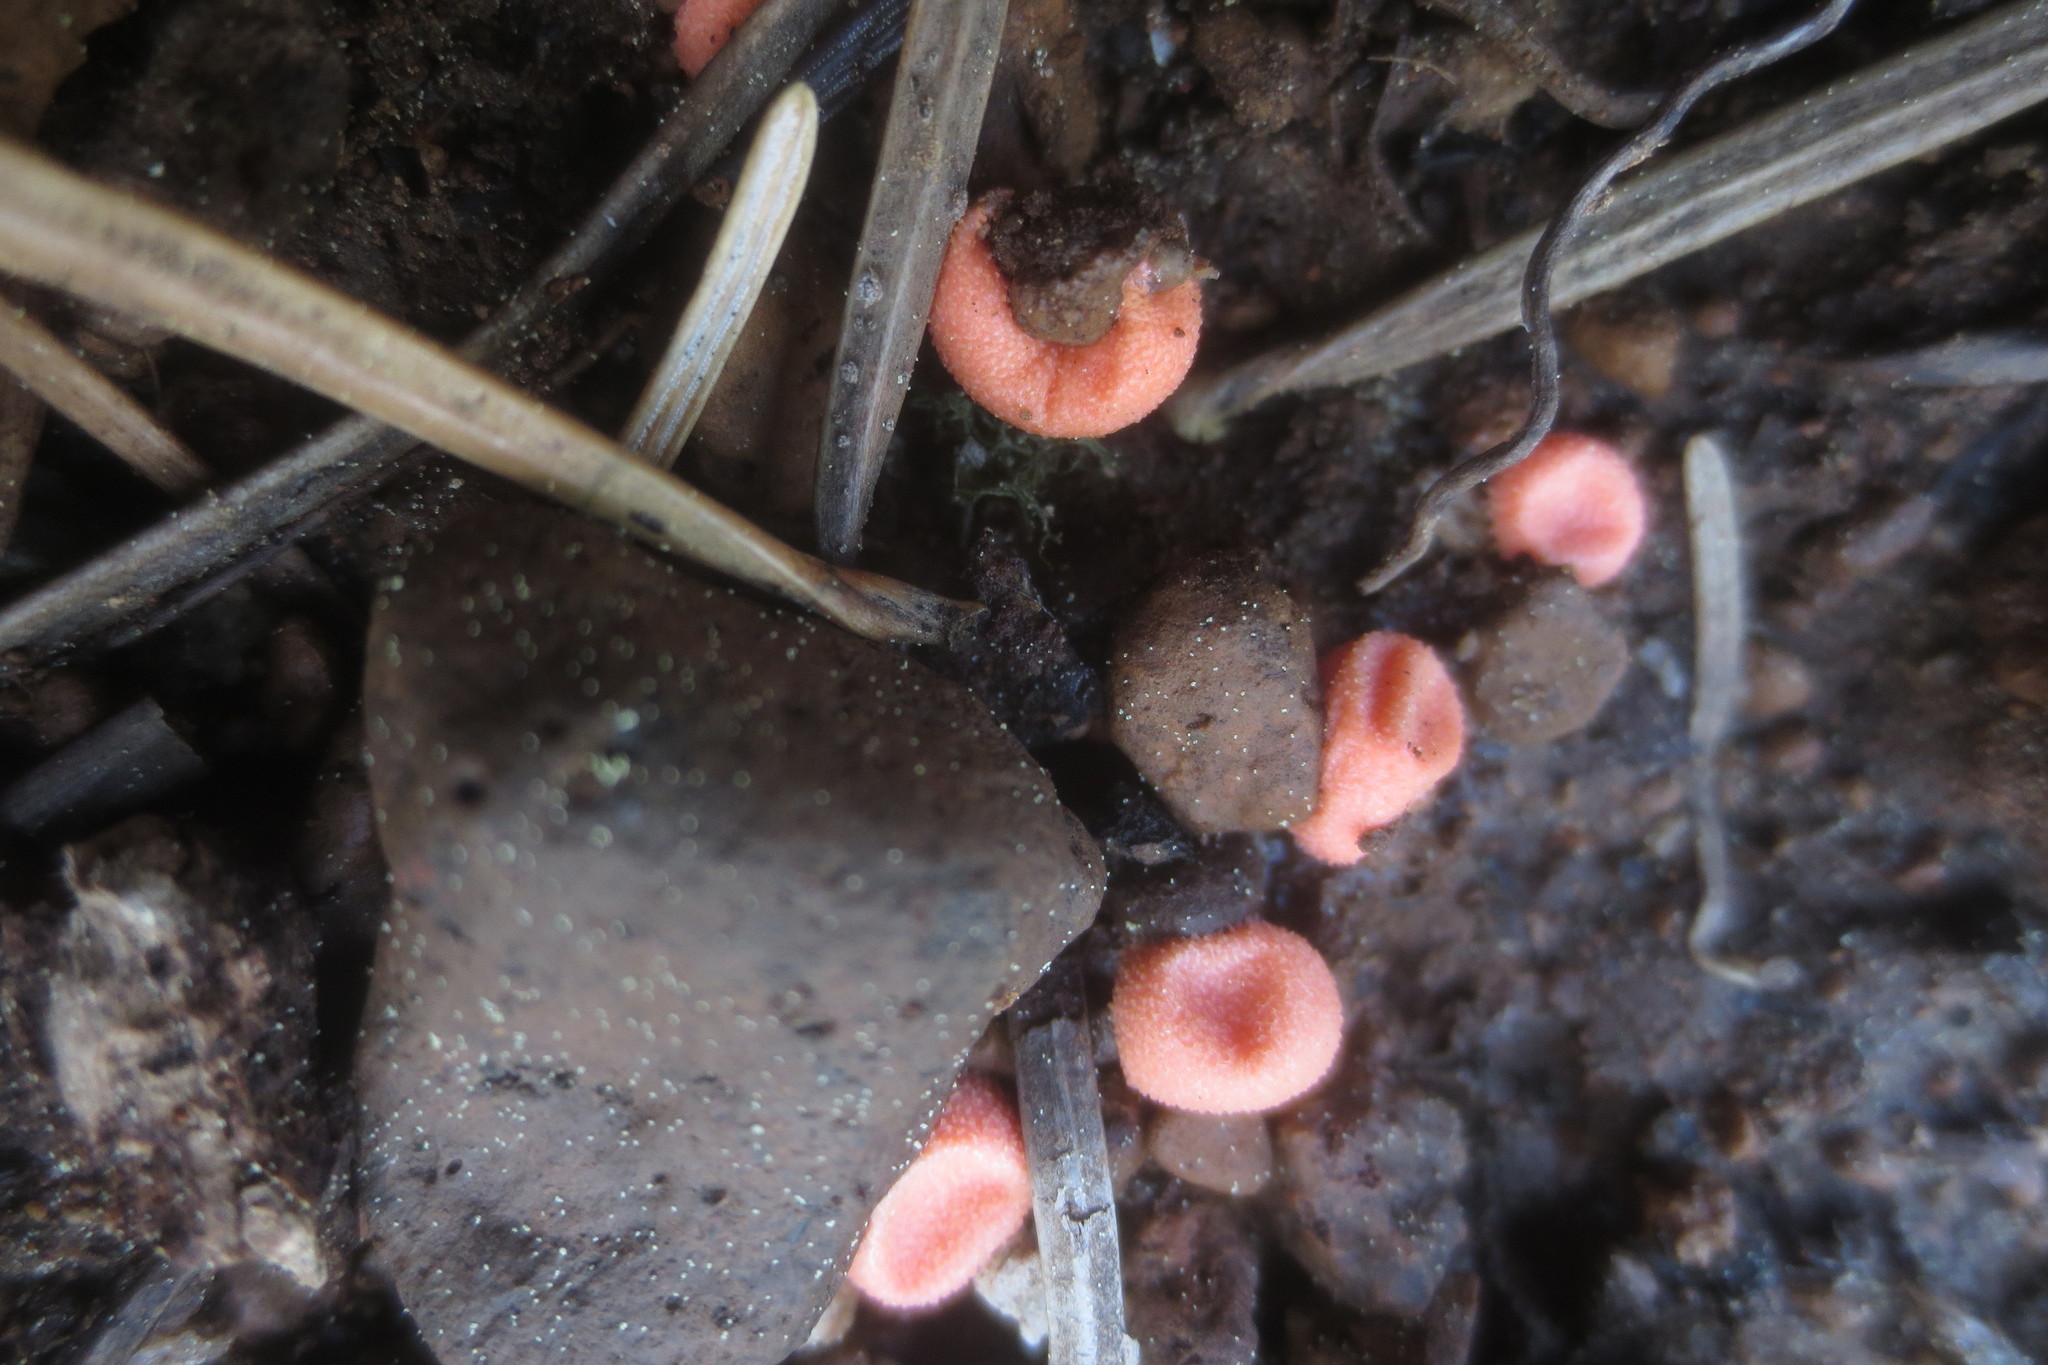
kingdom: Protozoa
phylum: Mycetozoa
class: Myxomycetes
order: Cribrariales
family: Tubiferaceae
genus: Lycogala
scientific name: Lycogala epidendrum
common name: Wolf's milk
